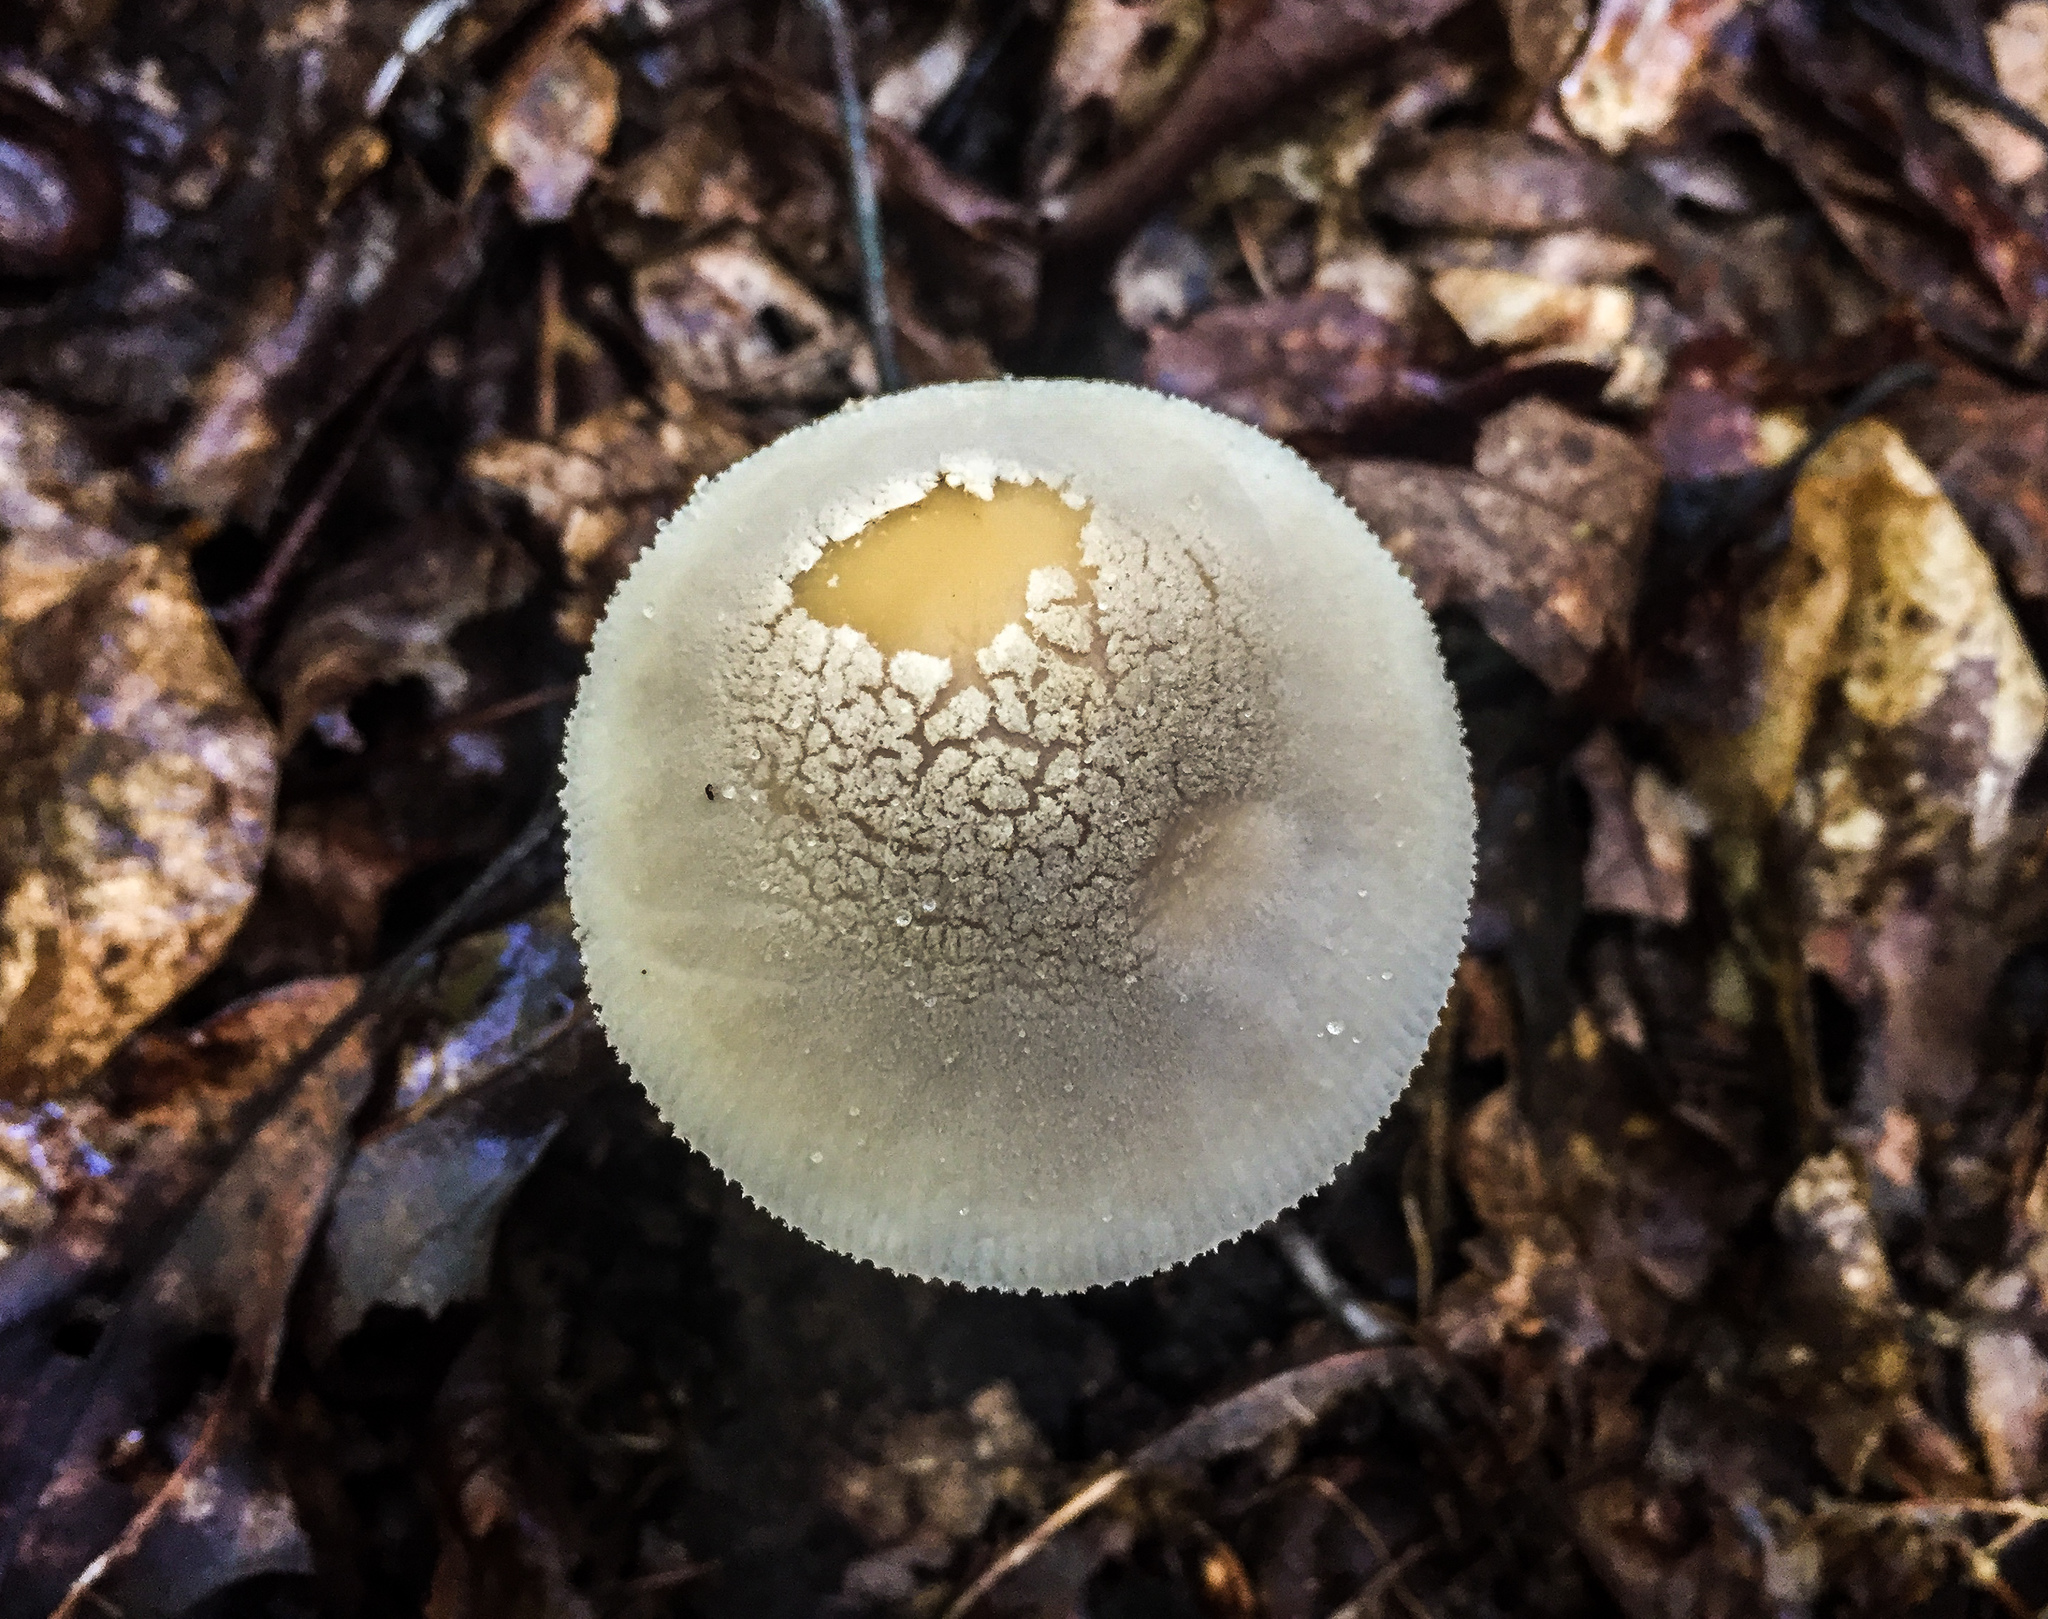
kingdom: Fungi
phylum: Basidiomycota
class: Agaricomycetes
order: Agaricales
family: Amanitaceae
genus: Amanita
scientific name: Amanita farinosa
